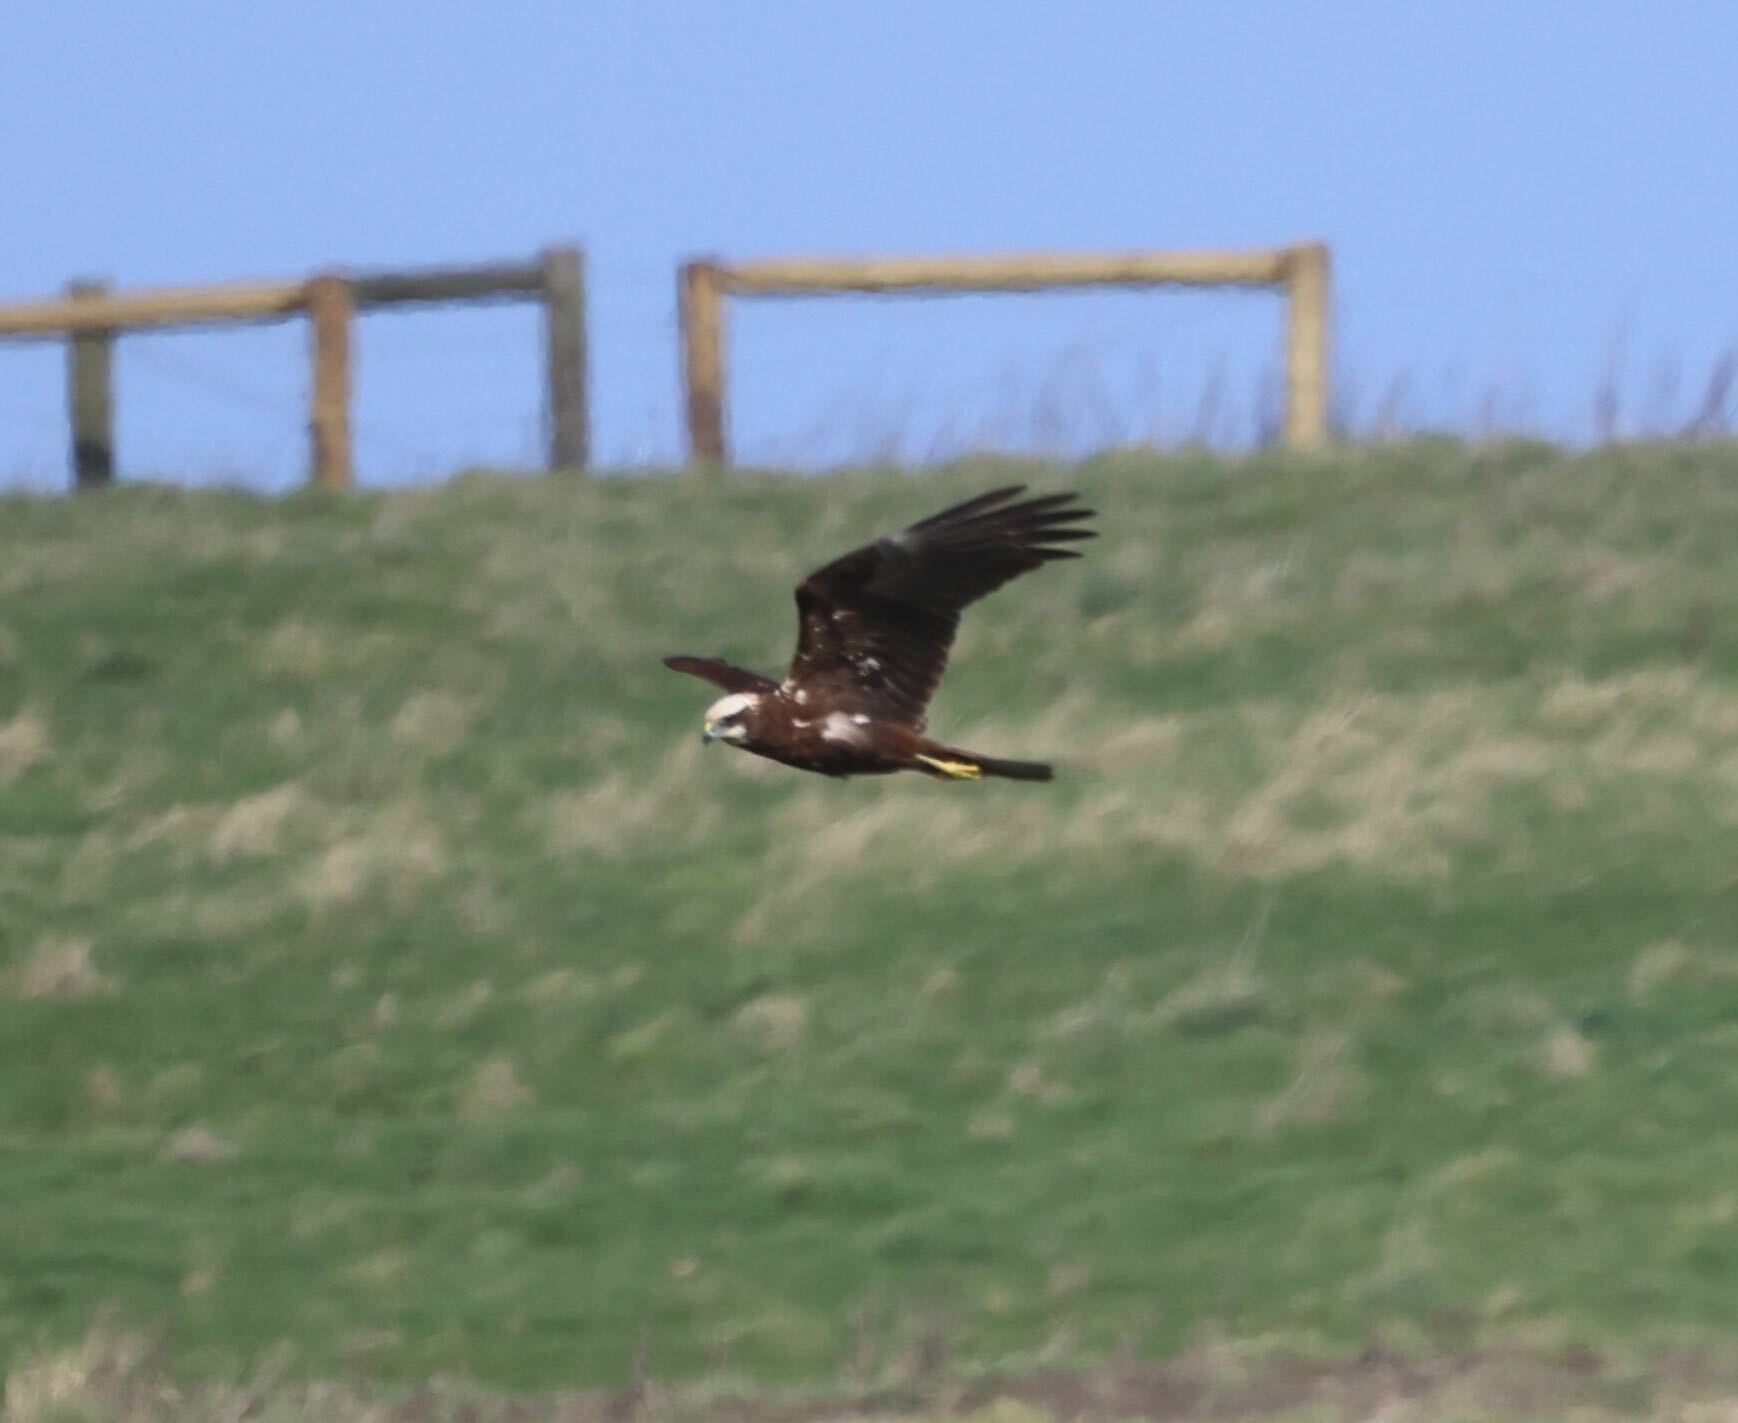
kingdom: Animalia
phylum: Chordata
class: Aves
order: Accipitriformes
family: Accipitridae
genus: Circus
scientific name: Circus aeruginosus
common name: Western marsh harrier
